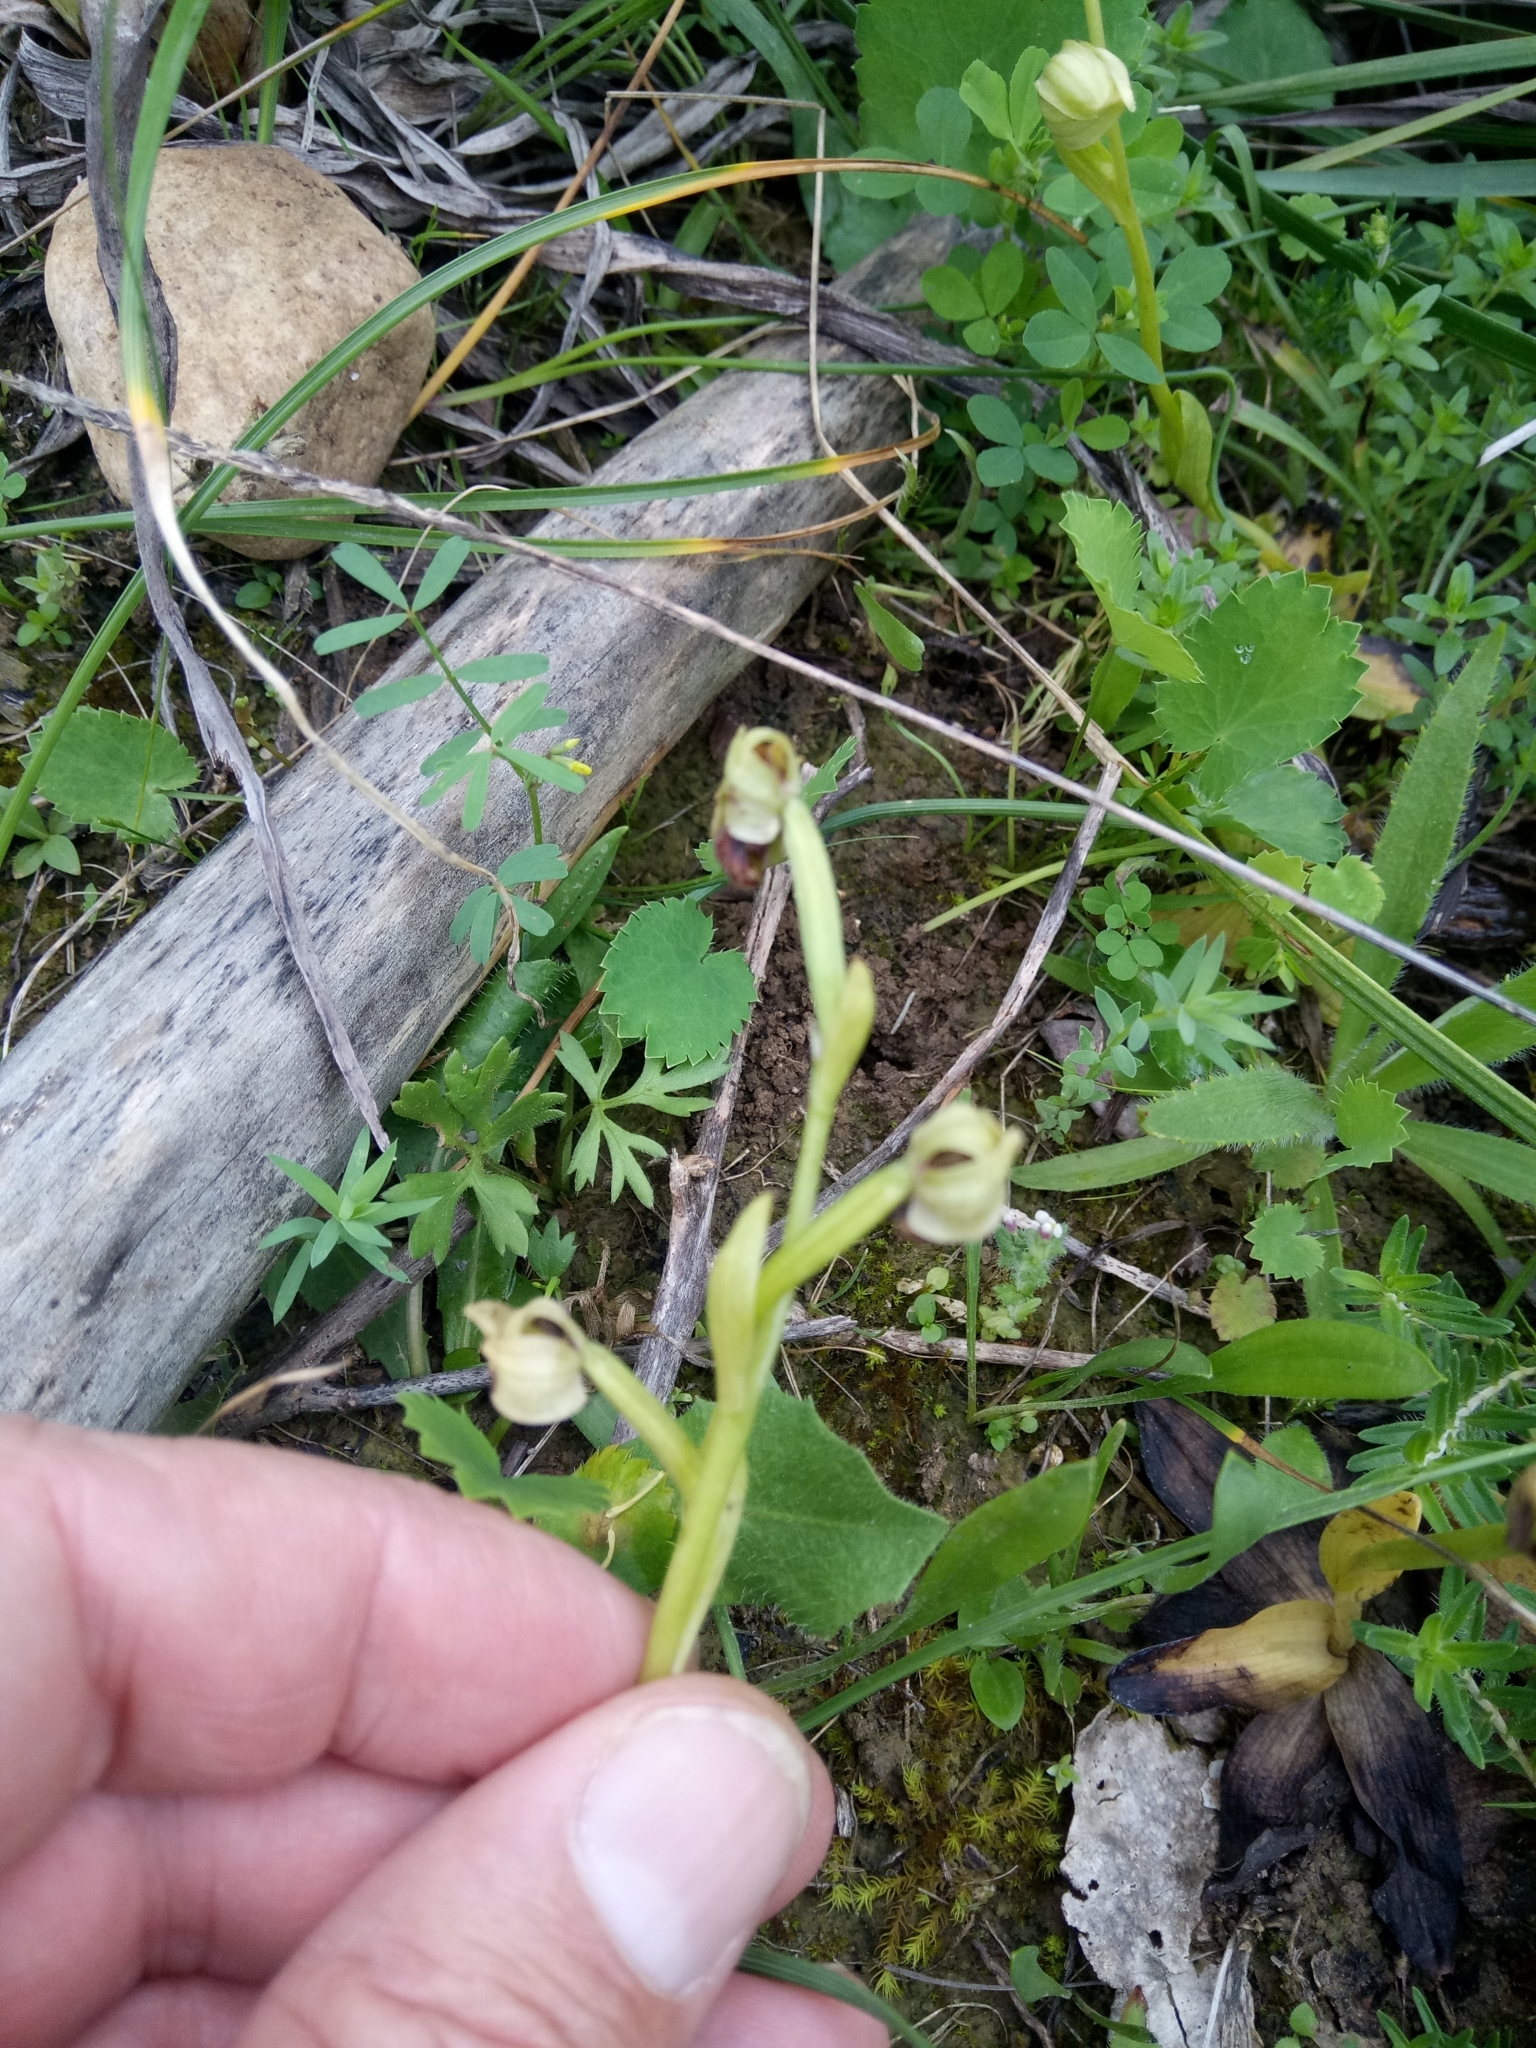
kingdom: Plantae
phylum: Tracheophyta
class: Liliopsida
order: Asparagales
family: Orchidaceae
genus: Ophrys
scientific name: Ophrys fusca
